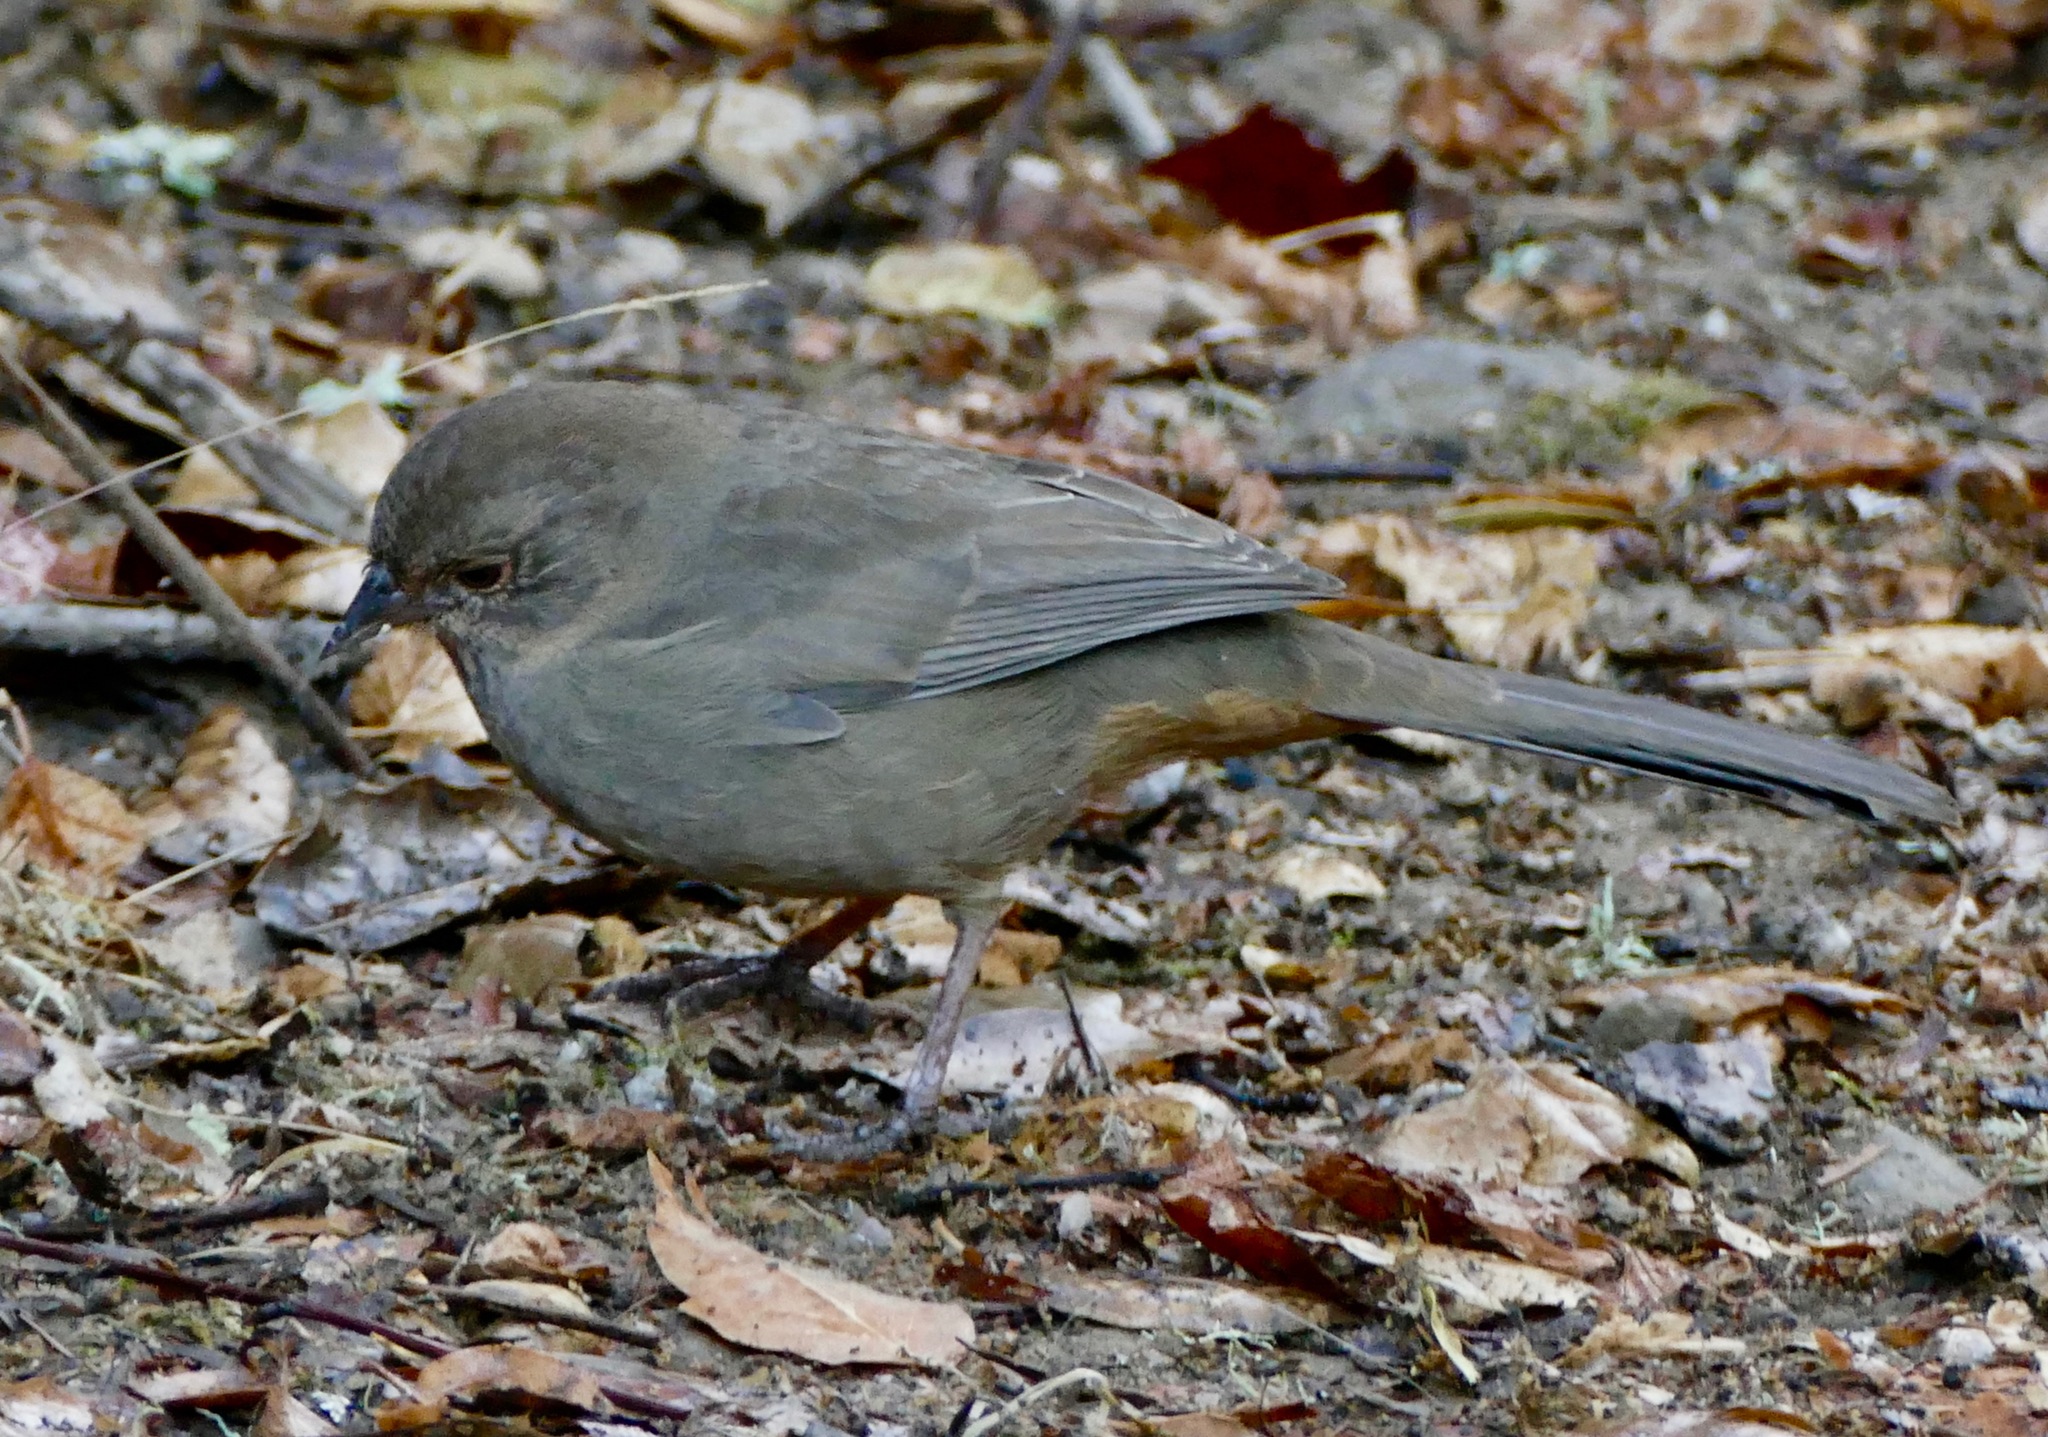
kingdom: Animalia
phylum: Chordata
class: Aves
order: Passeriformes
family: Passerellidae
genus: Melozone
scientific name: Melozone crissalis
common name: California towhee
